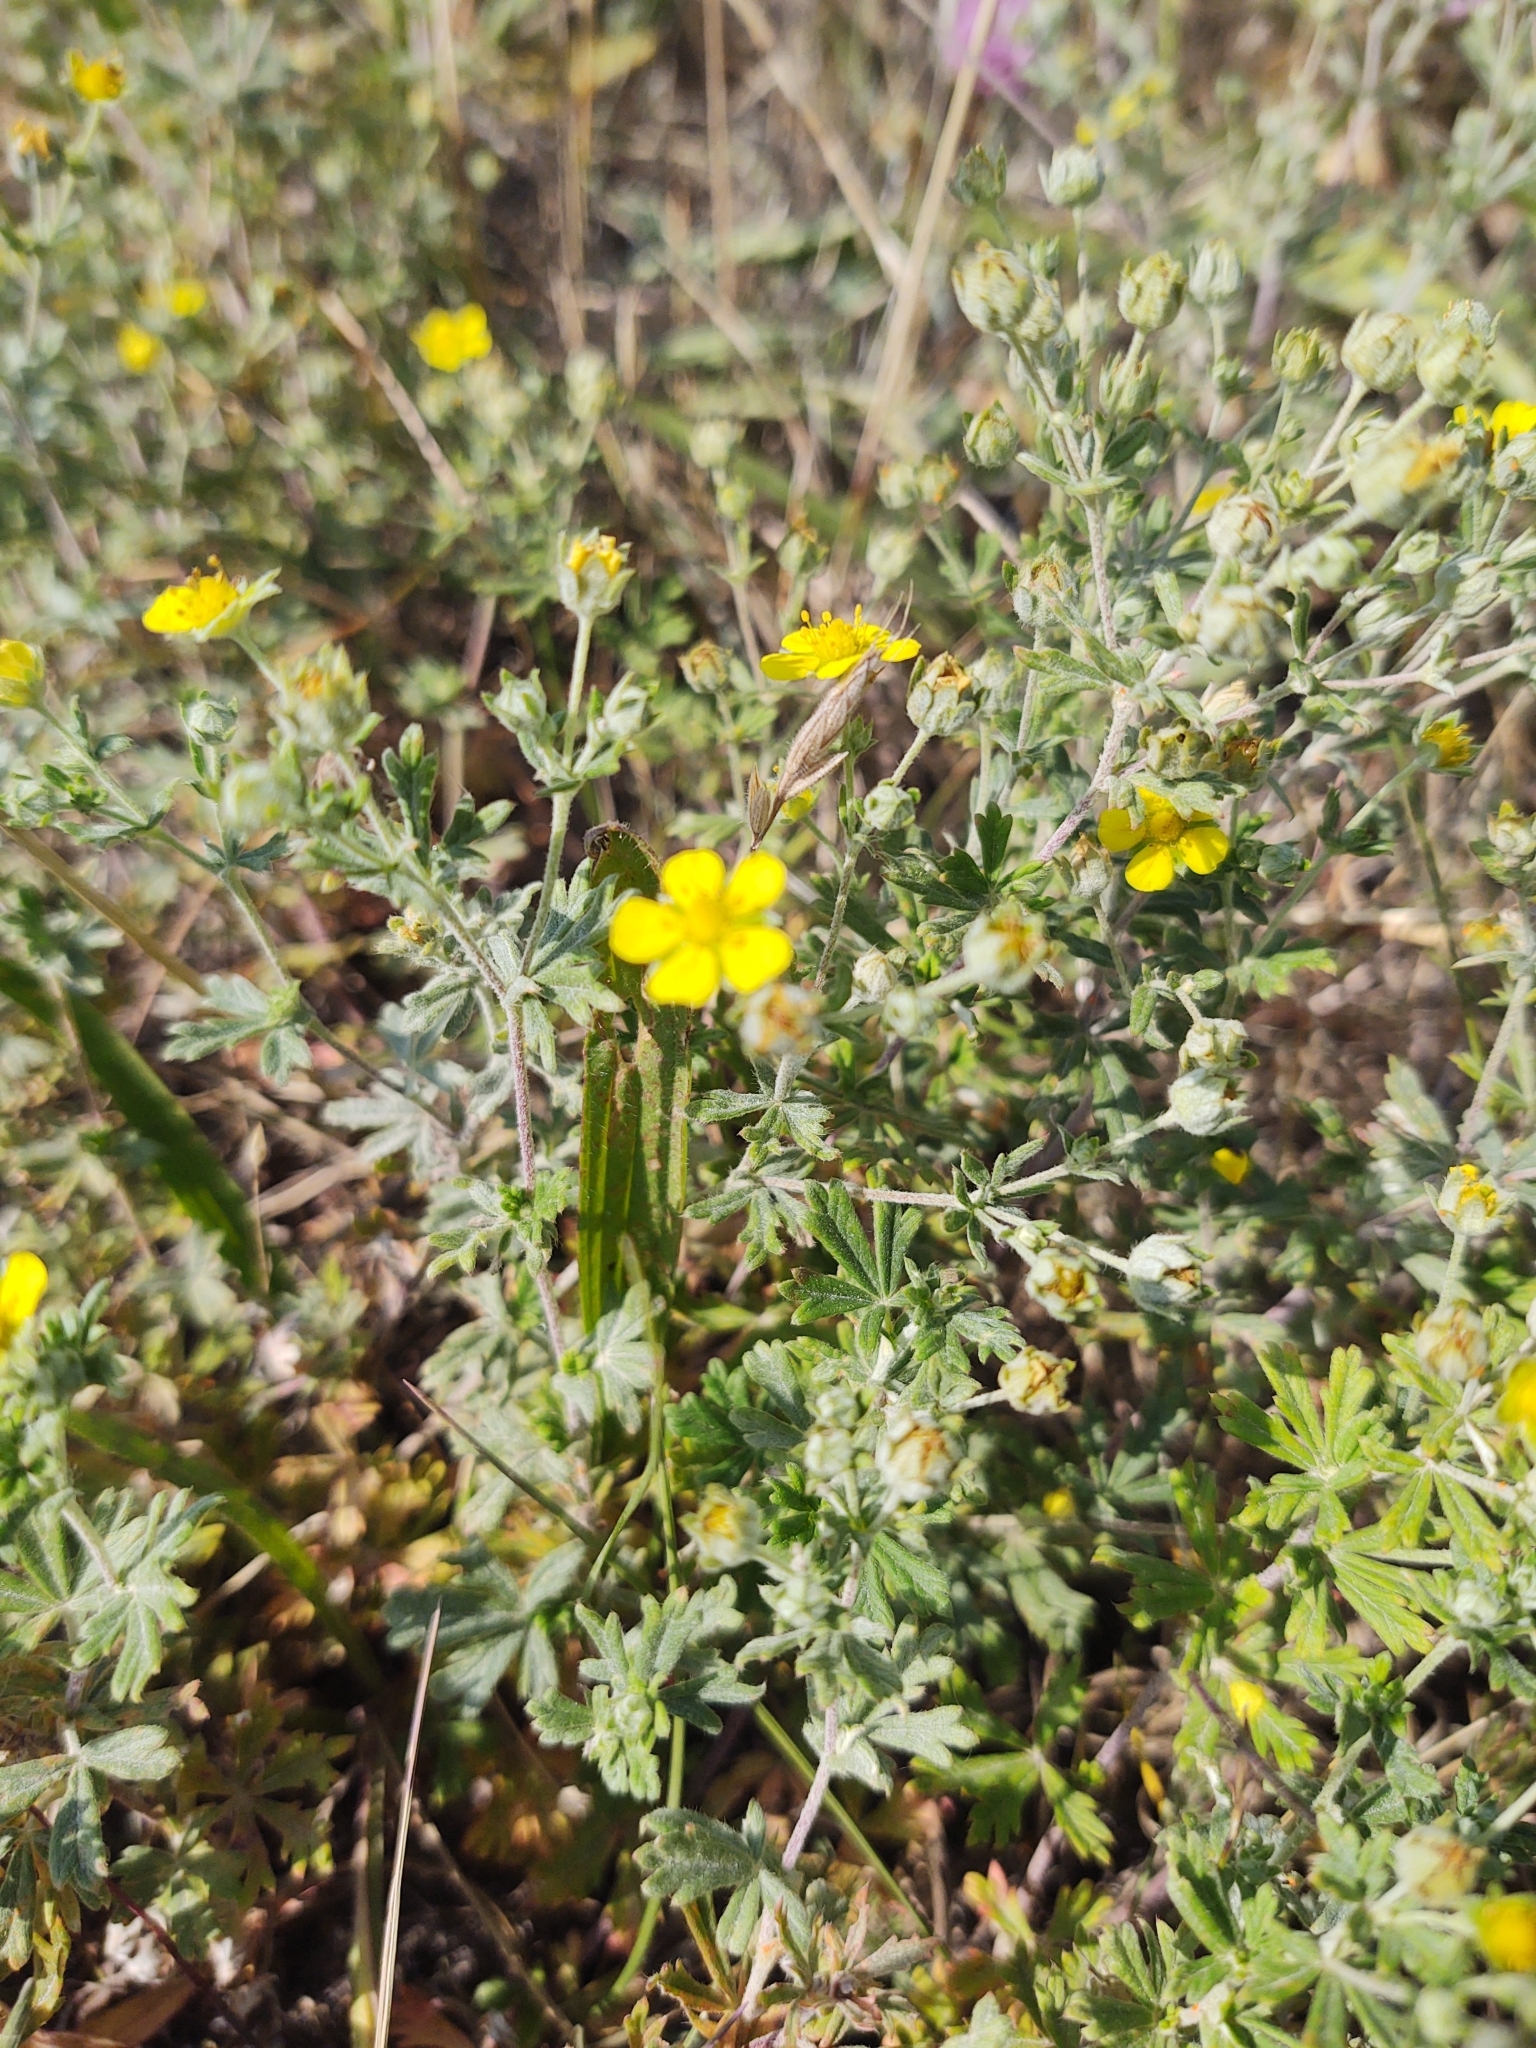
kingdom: Plantae
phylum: Tracheophyta
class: Magnoliopsida
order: Rosales
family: Rosaceae
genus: Potentilla
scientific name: Potentilla argentea
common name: Hoary cinquefoil
